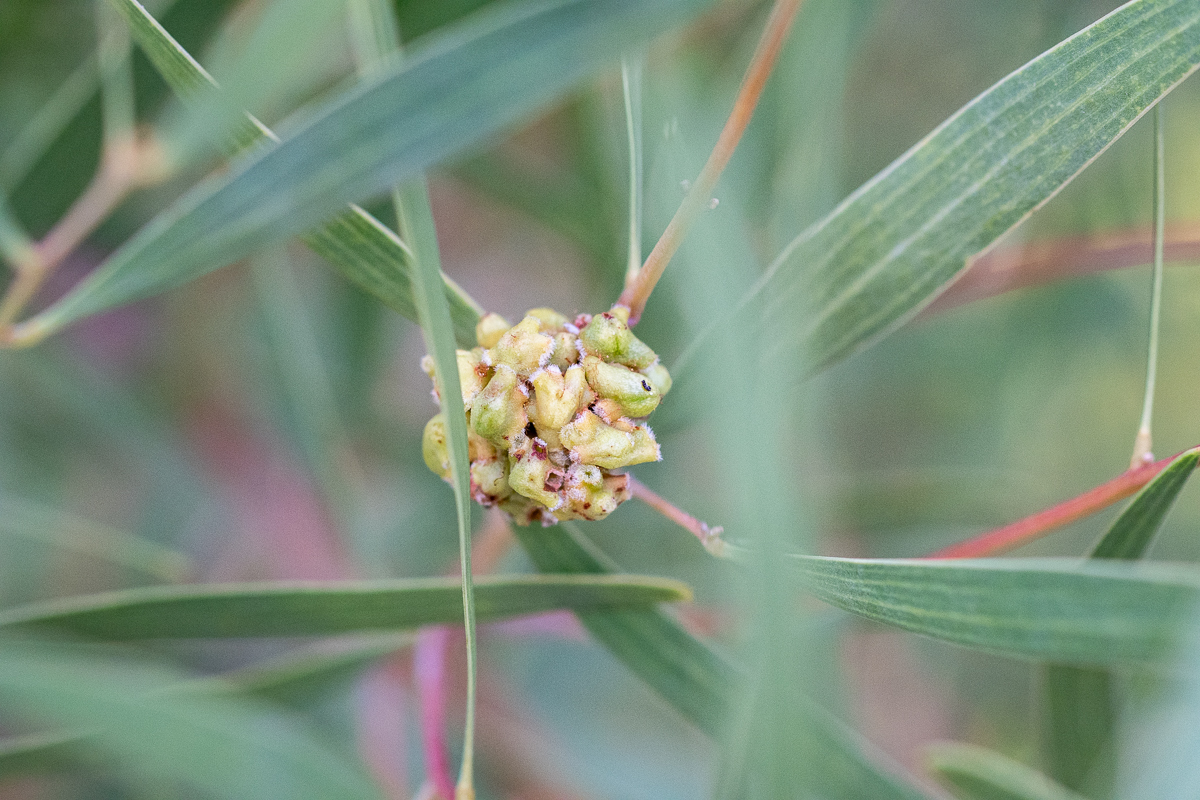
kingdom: Animalia
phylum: Arthropoda
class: Insecta
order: Diptera
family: Cecidomyiidae
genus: Dasineura
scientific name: Dasineura dielsi
